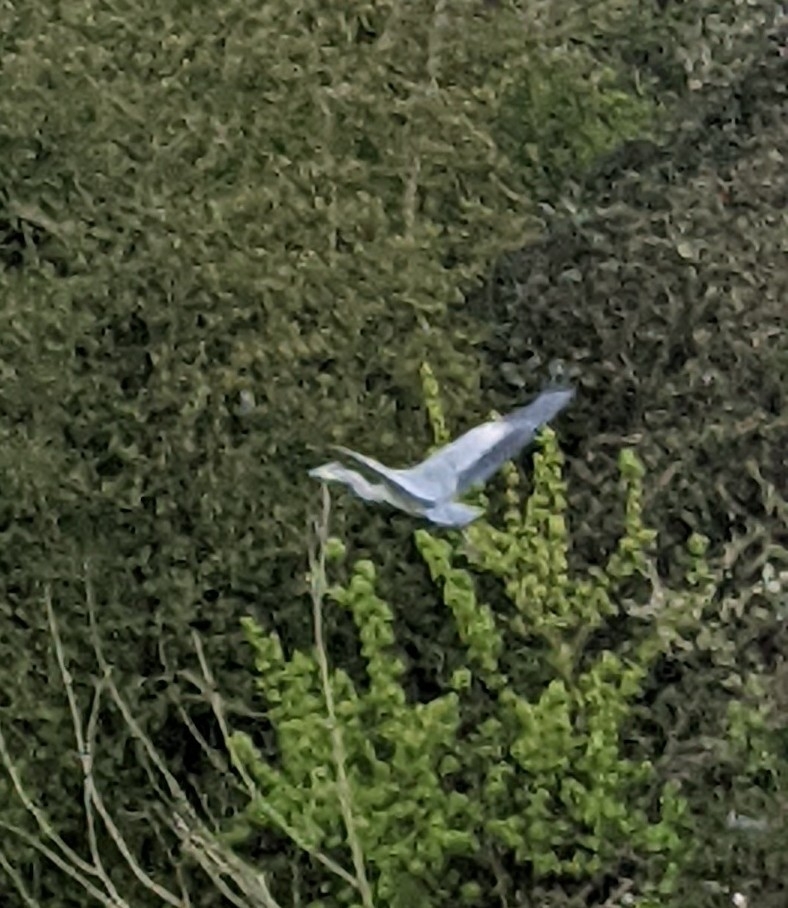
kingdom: Animalia
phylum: Chordata
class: Aves
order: Pelecaniformes
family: Ardeidae
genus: Ardea
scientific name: Ardea cinerea
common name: Grey heron
